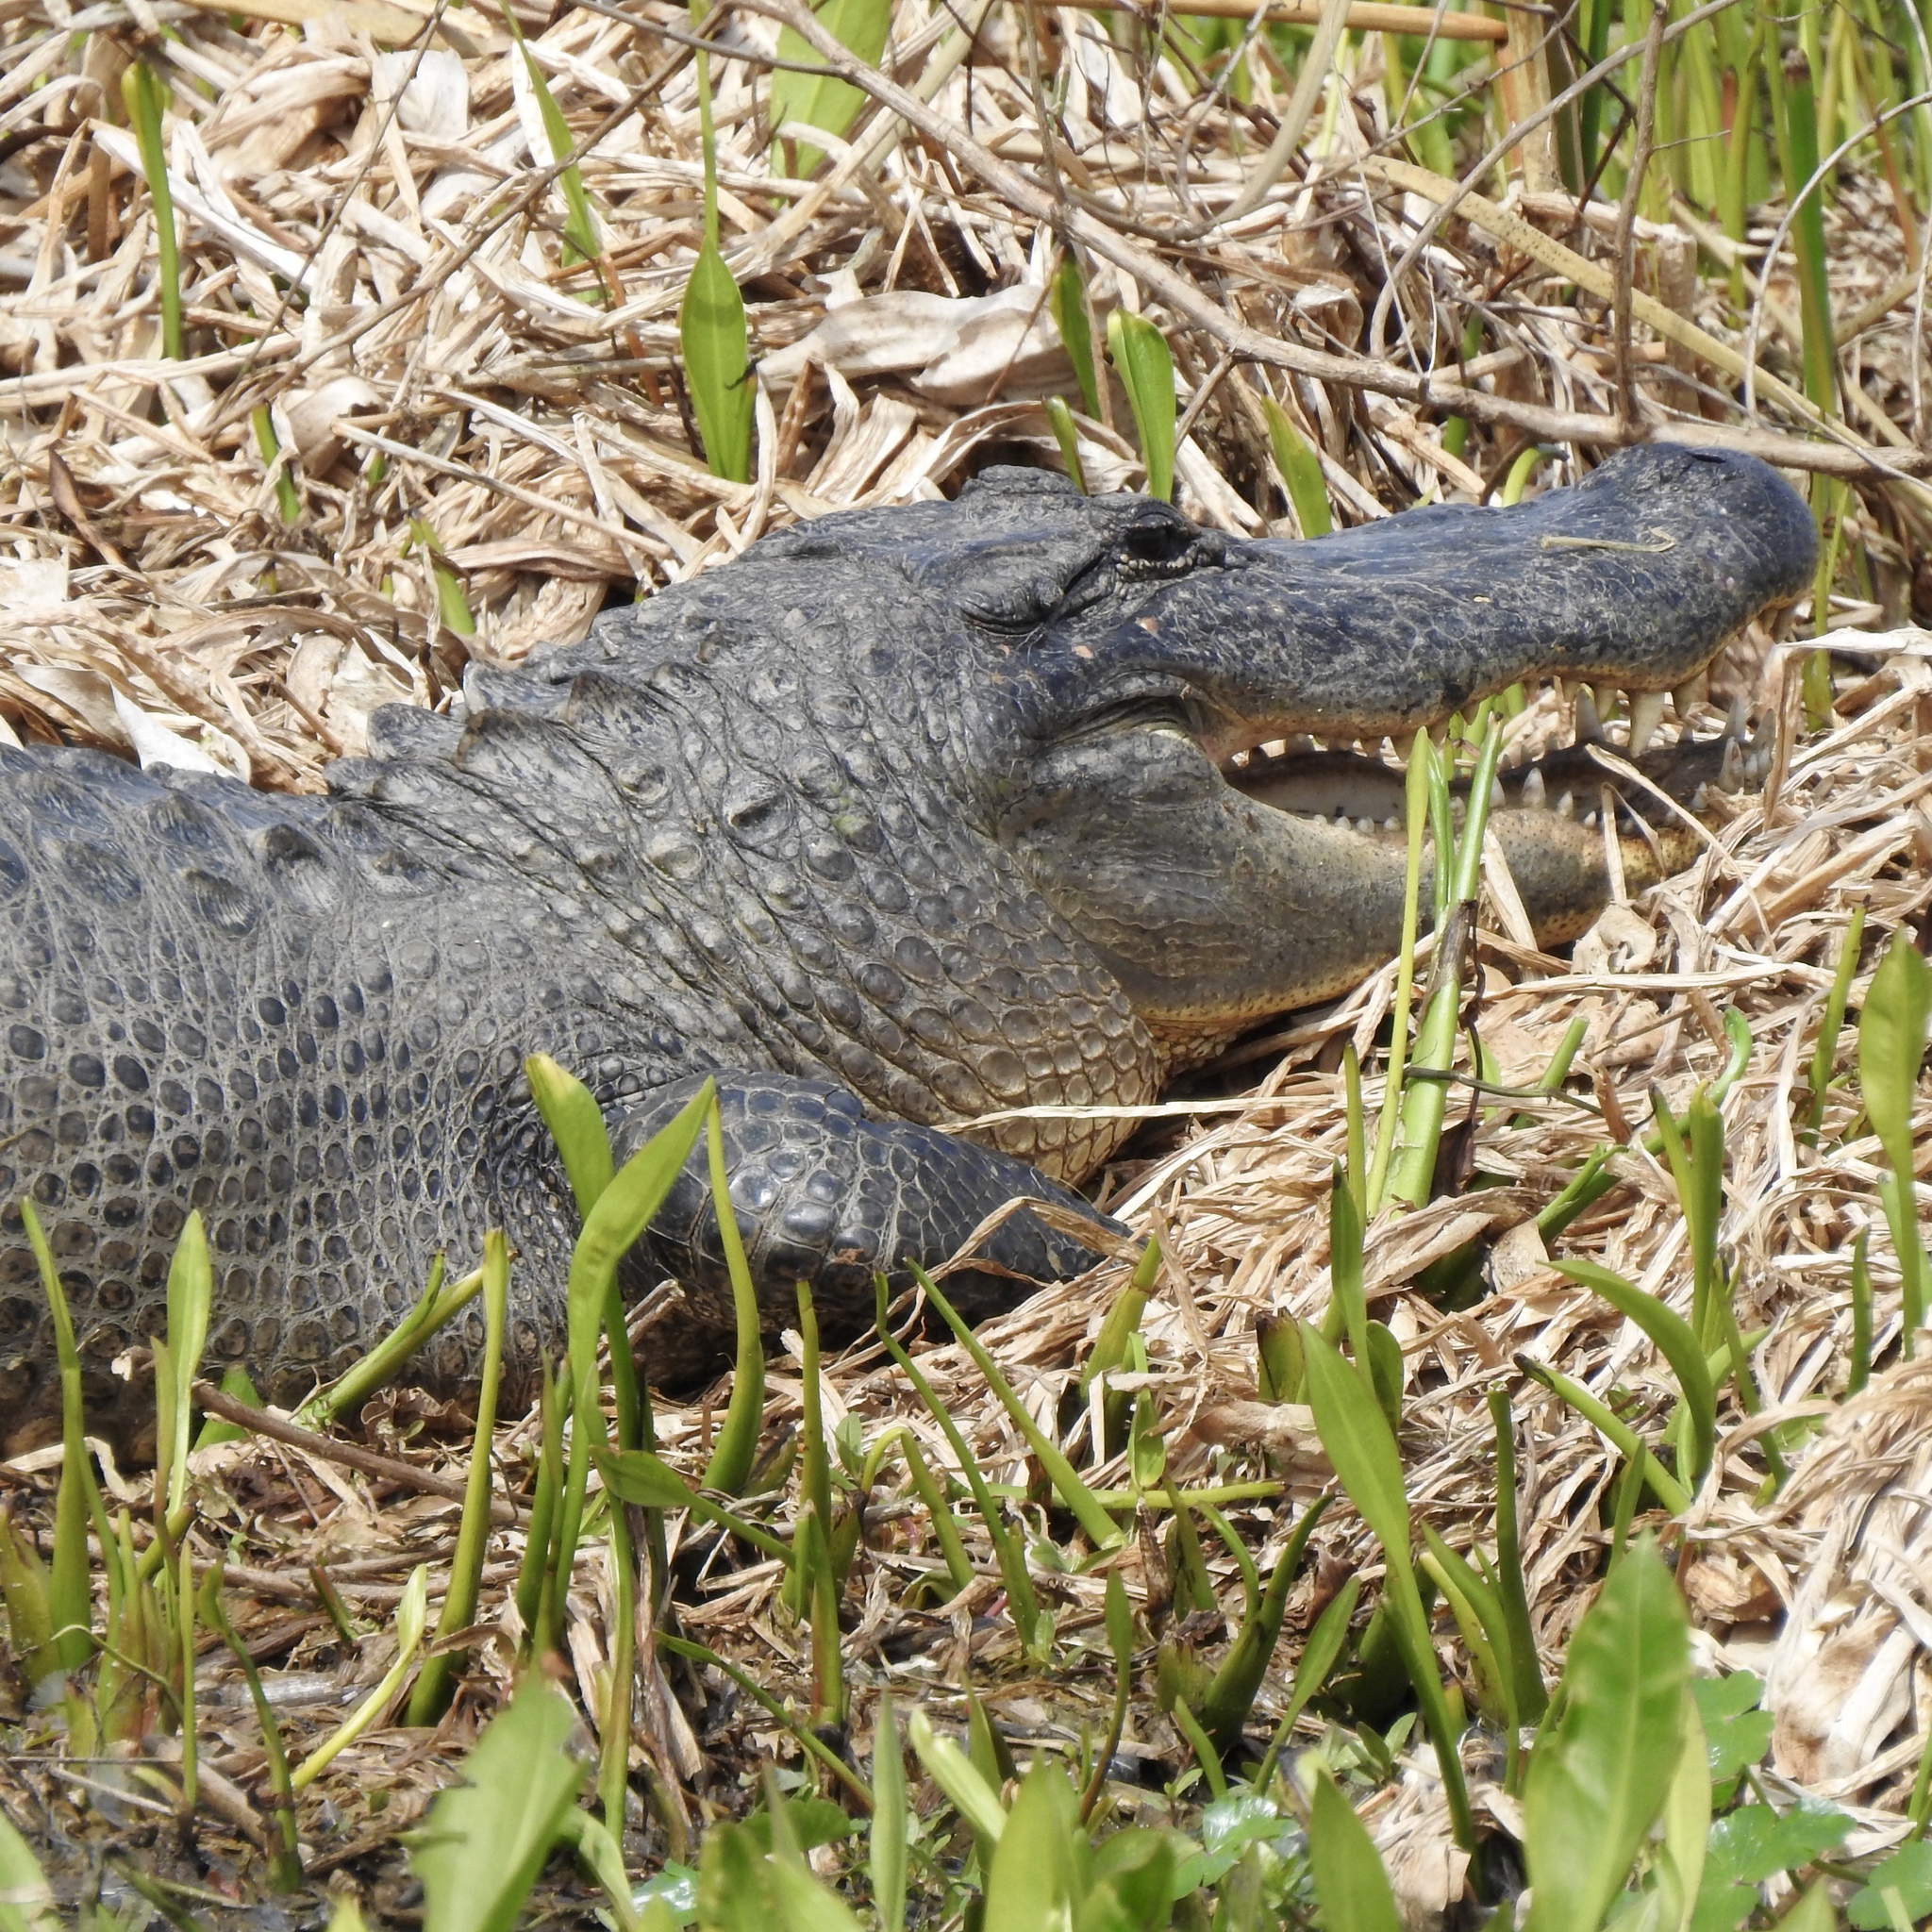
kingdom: Animalia
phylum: Chordata
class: Crocodylia
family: Alligatoridae
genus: Alligator
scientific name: Alligator mississippiensis
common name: American alligator
